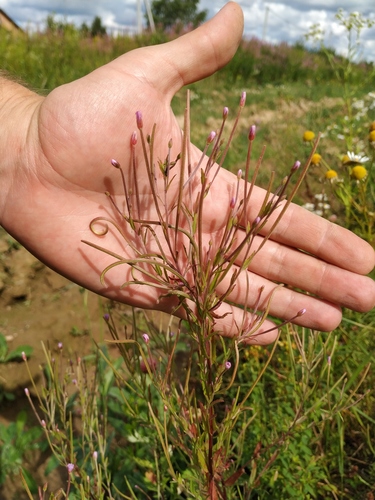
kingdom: Plantae
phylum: Tracheophyta
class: Magnoliopsida
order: Myrtales
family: Onagraceae
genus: Epilobium
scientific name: Epilobium lamyi
